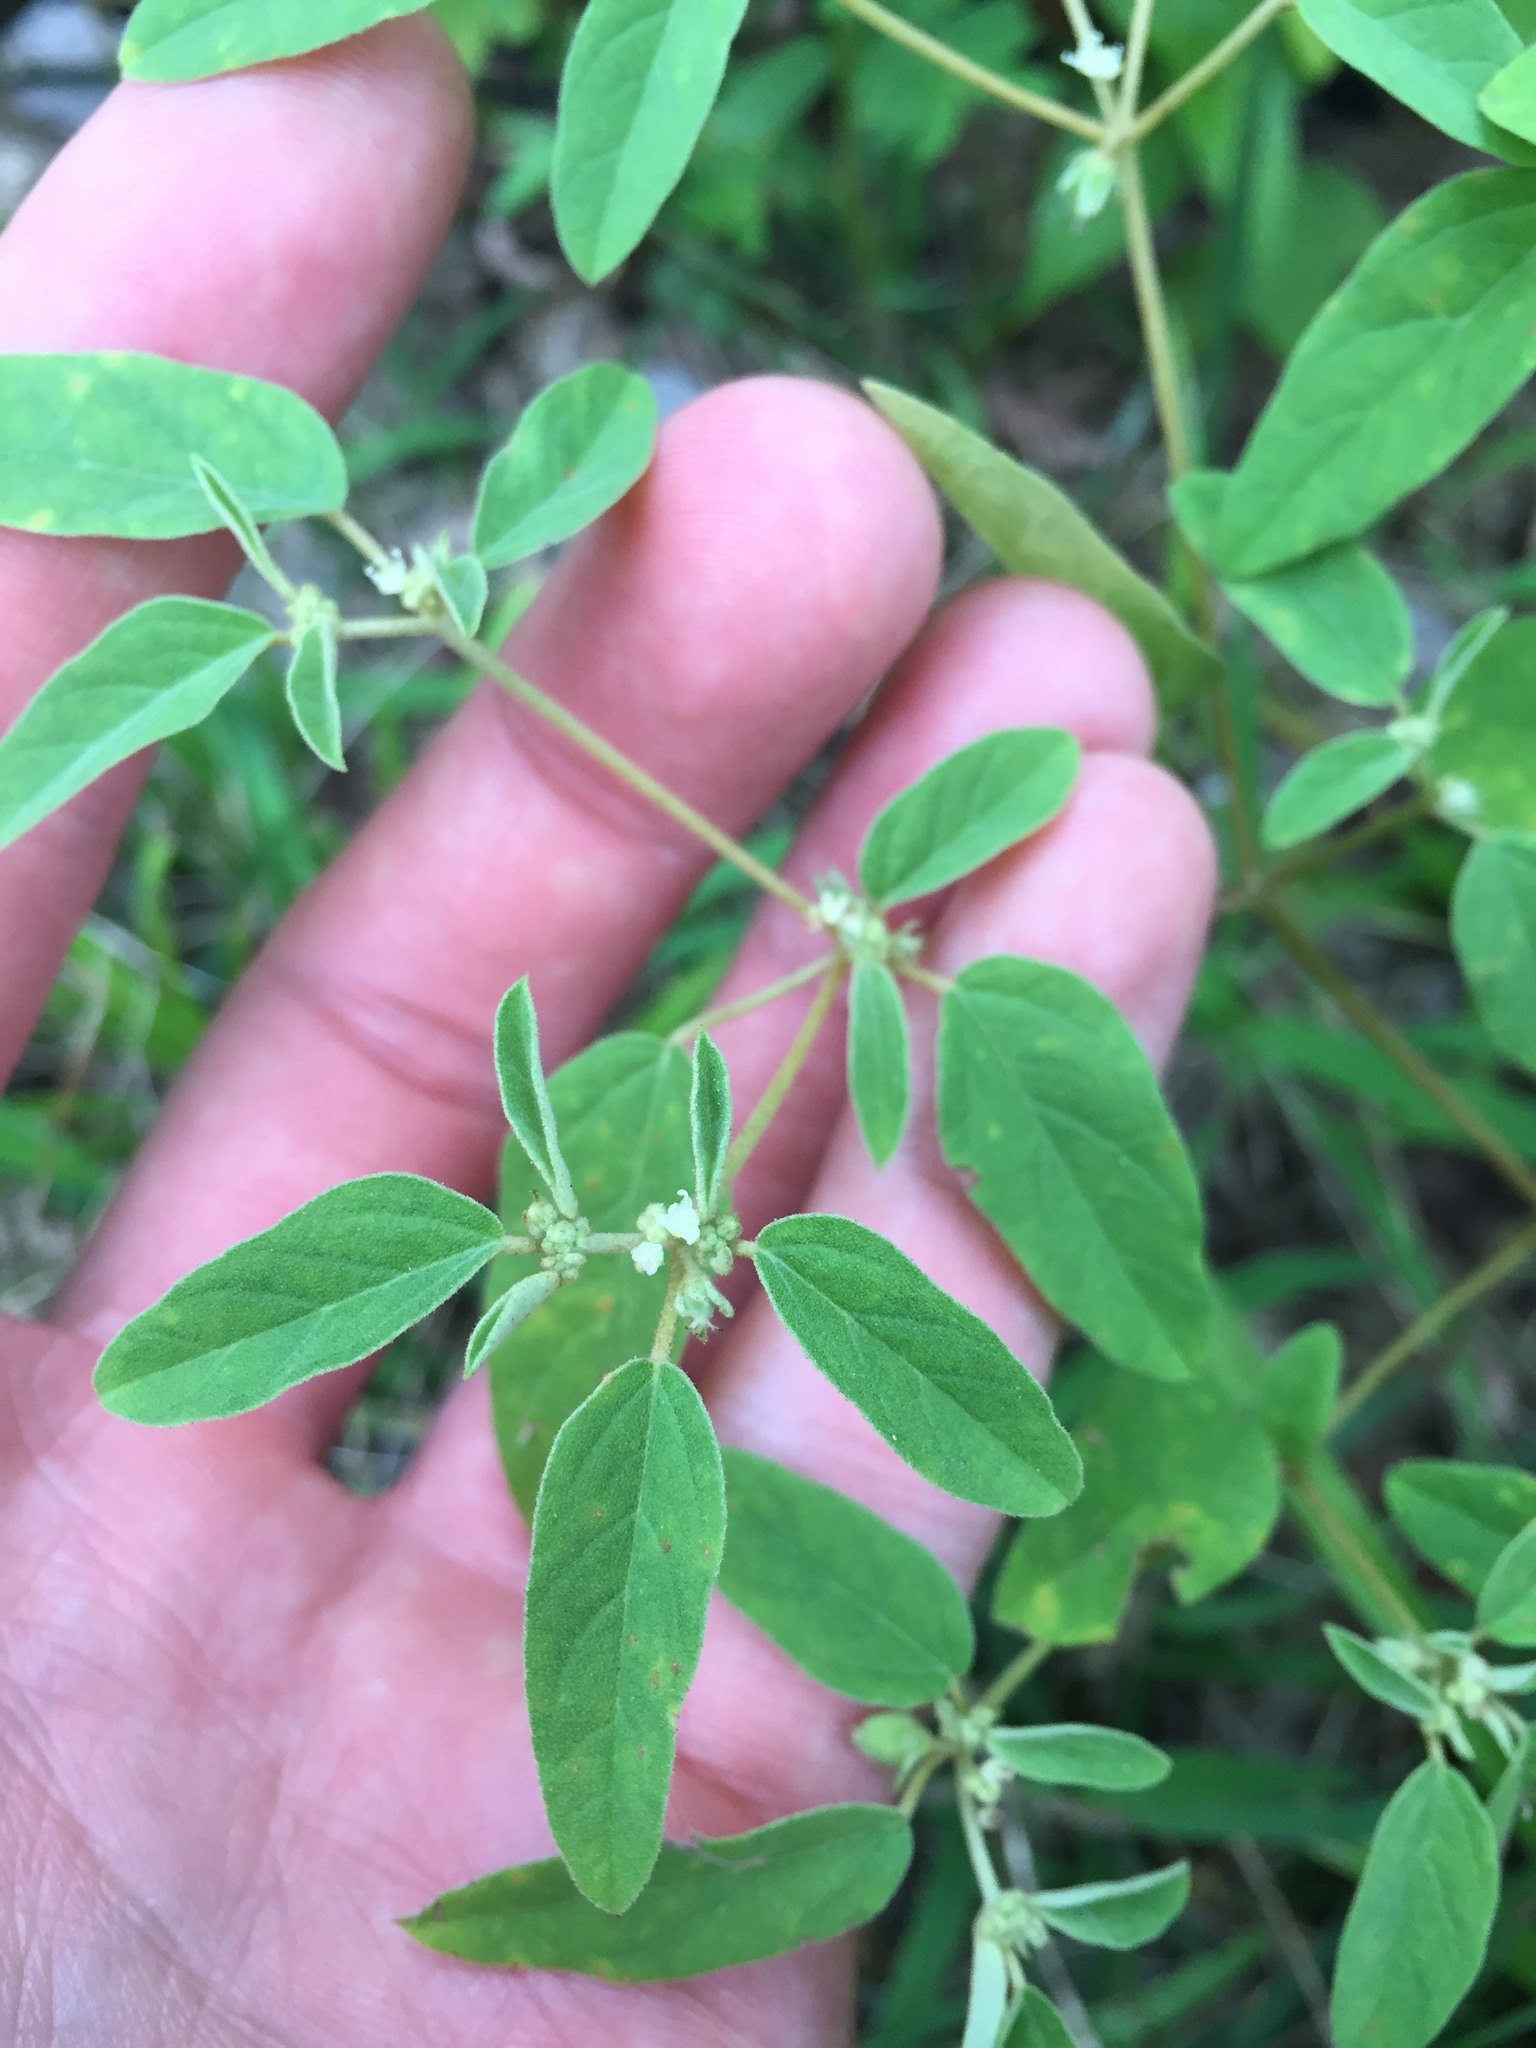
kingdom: Plantae
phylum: Tracheophyta
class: Magnoliopsida
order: Malpighiales
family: Euphorbiaceae
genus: Croton
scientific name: Croton monanthogynus
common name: One-seed croton
